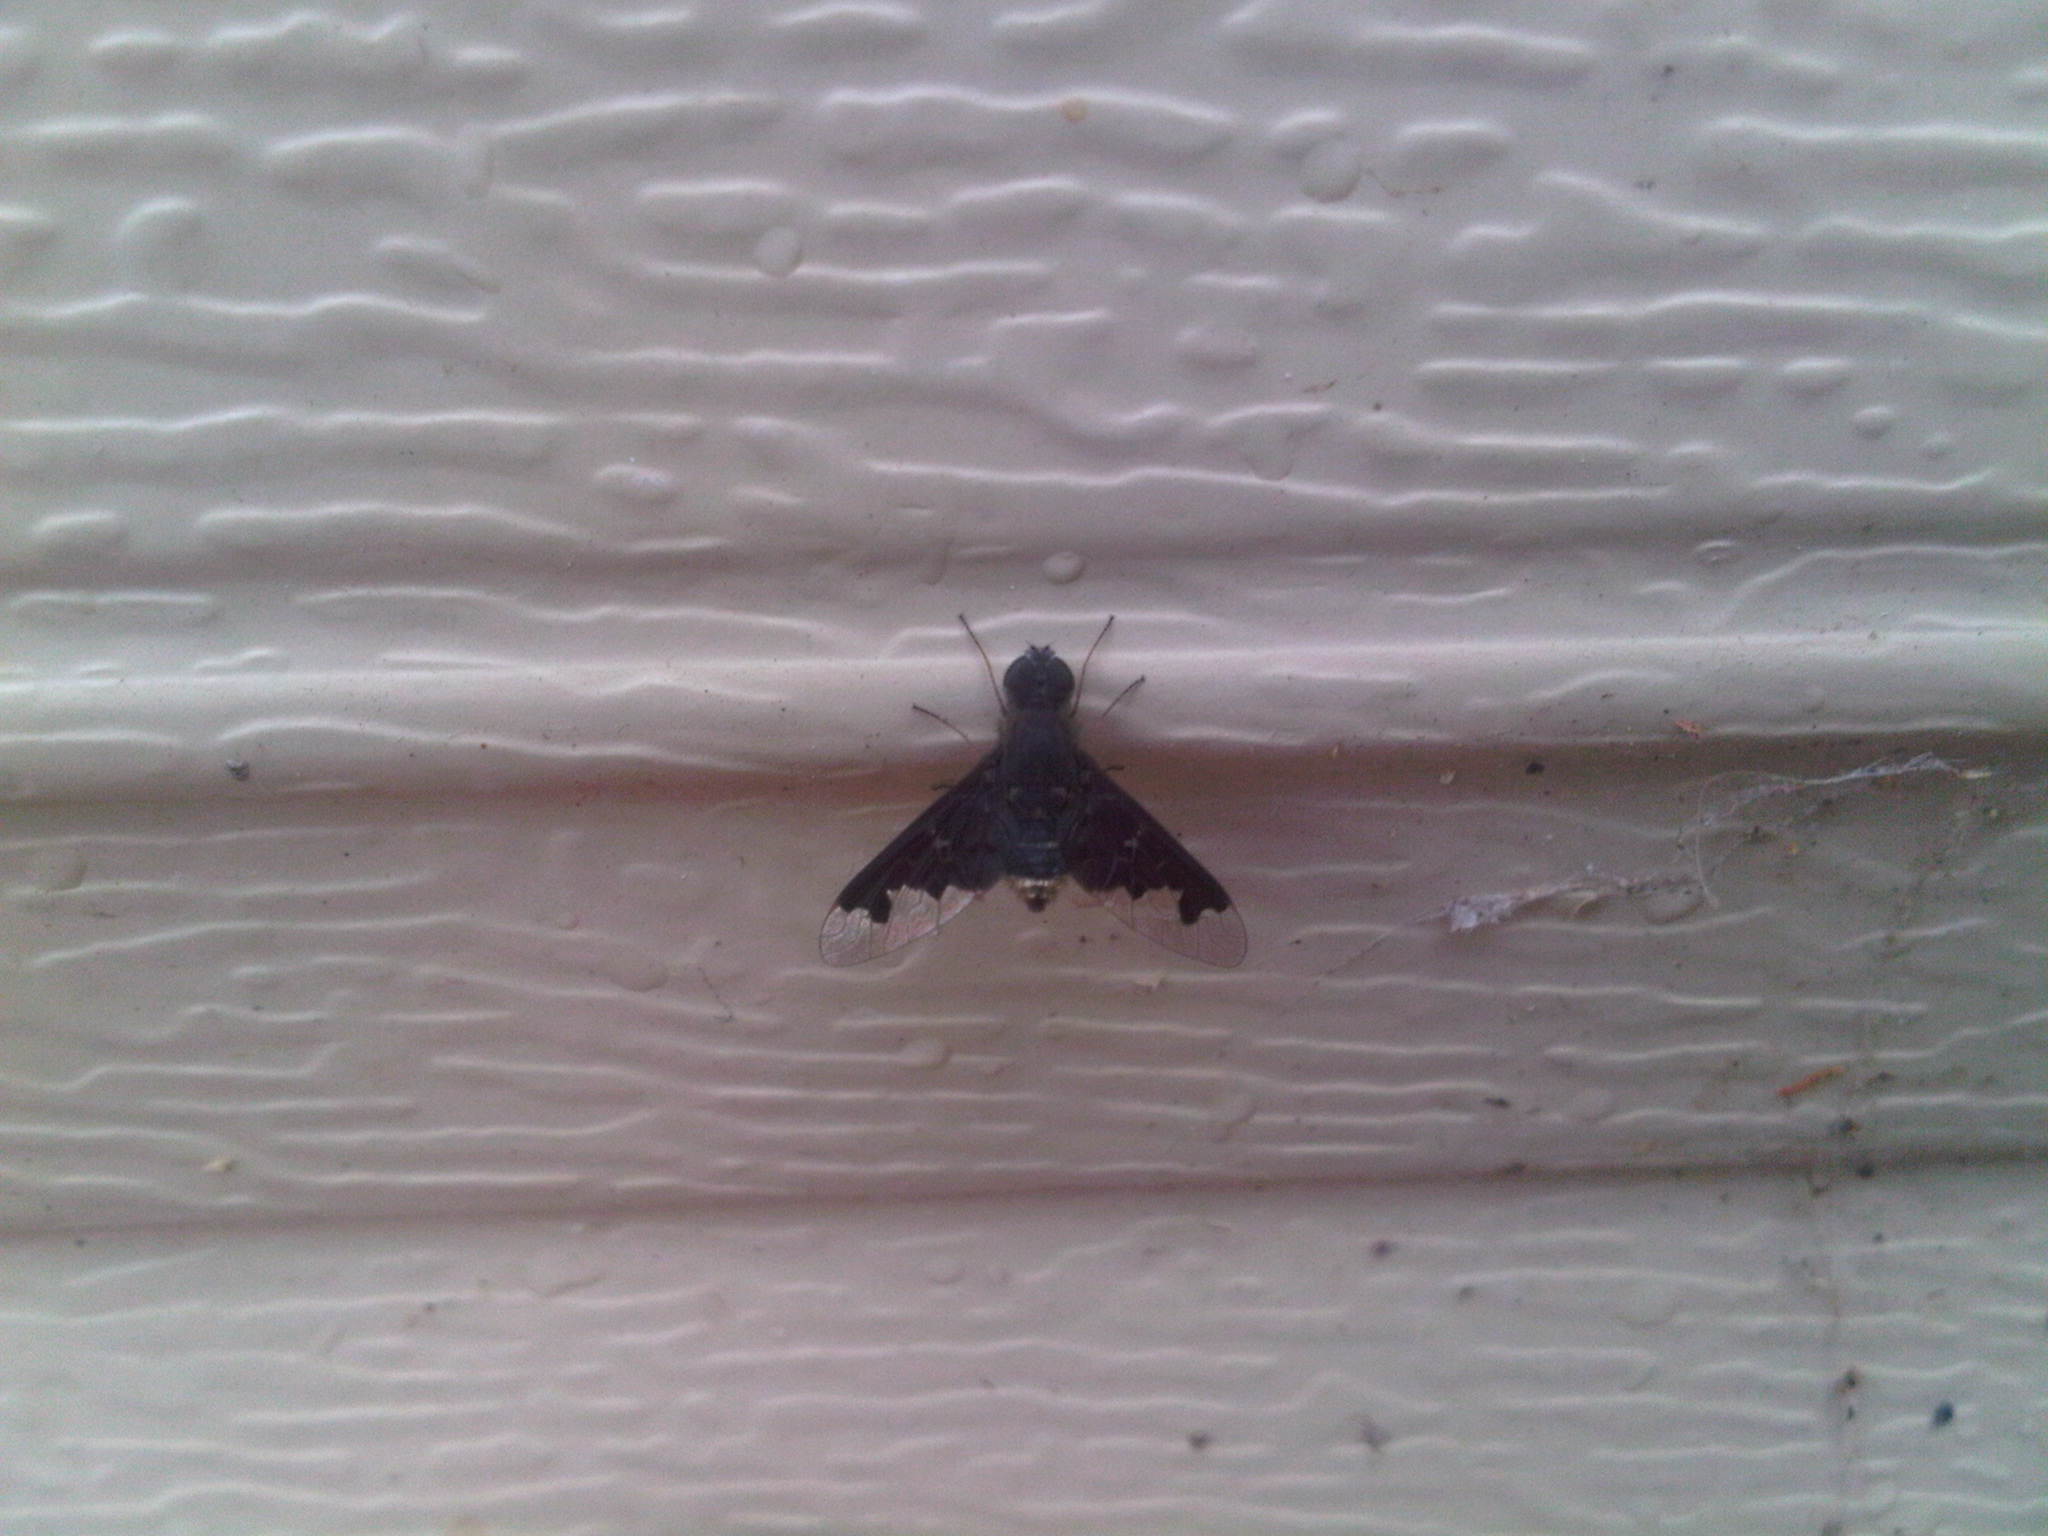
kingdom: Animalia
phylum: Arthropoda
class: Insecta
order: Diptera
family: Bombyliidae
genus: Anthrax
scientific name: Anthrax proconcisus
